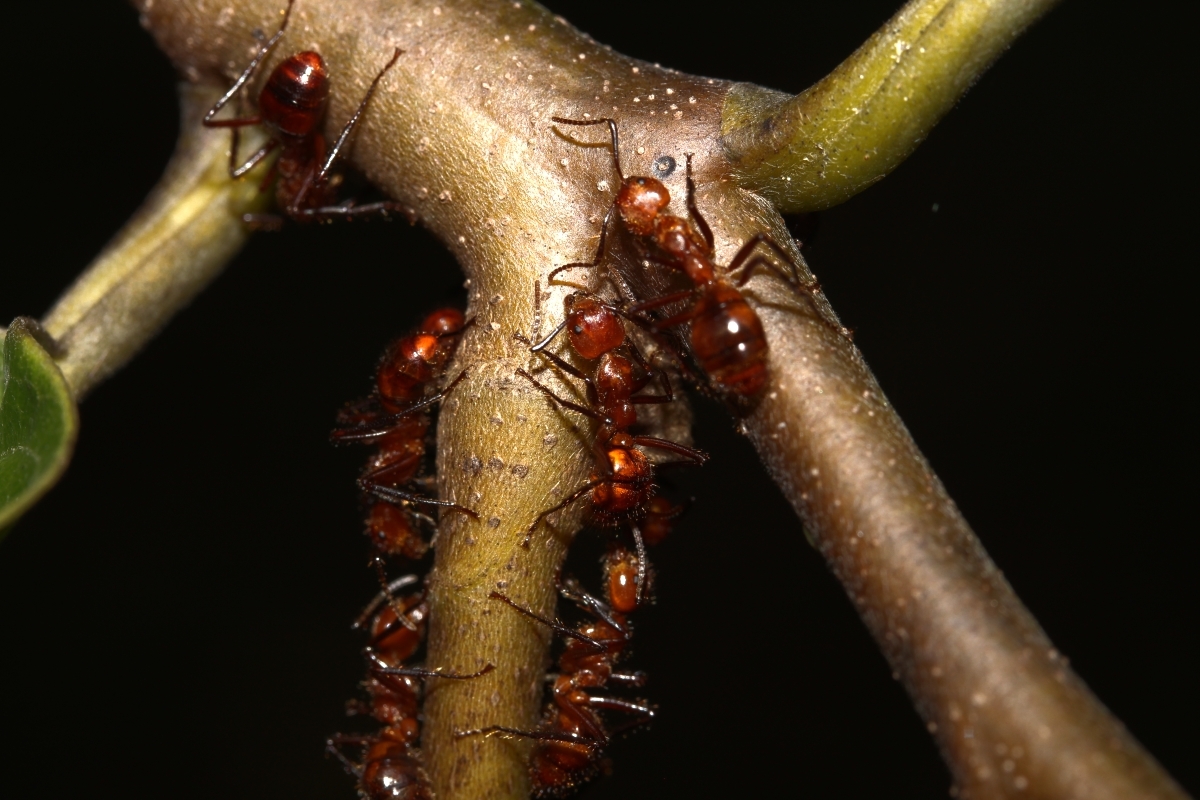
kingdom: Animalia
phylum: Arthropoda
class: Insecta
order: Hymenoptera
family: Formicidae
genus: Dolichoderus
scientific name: Dolichoderus abruptus
